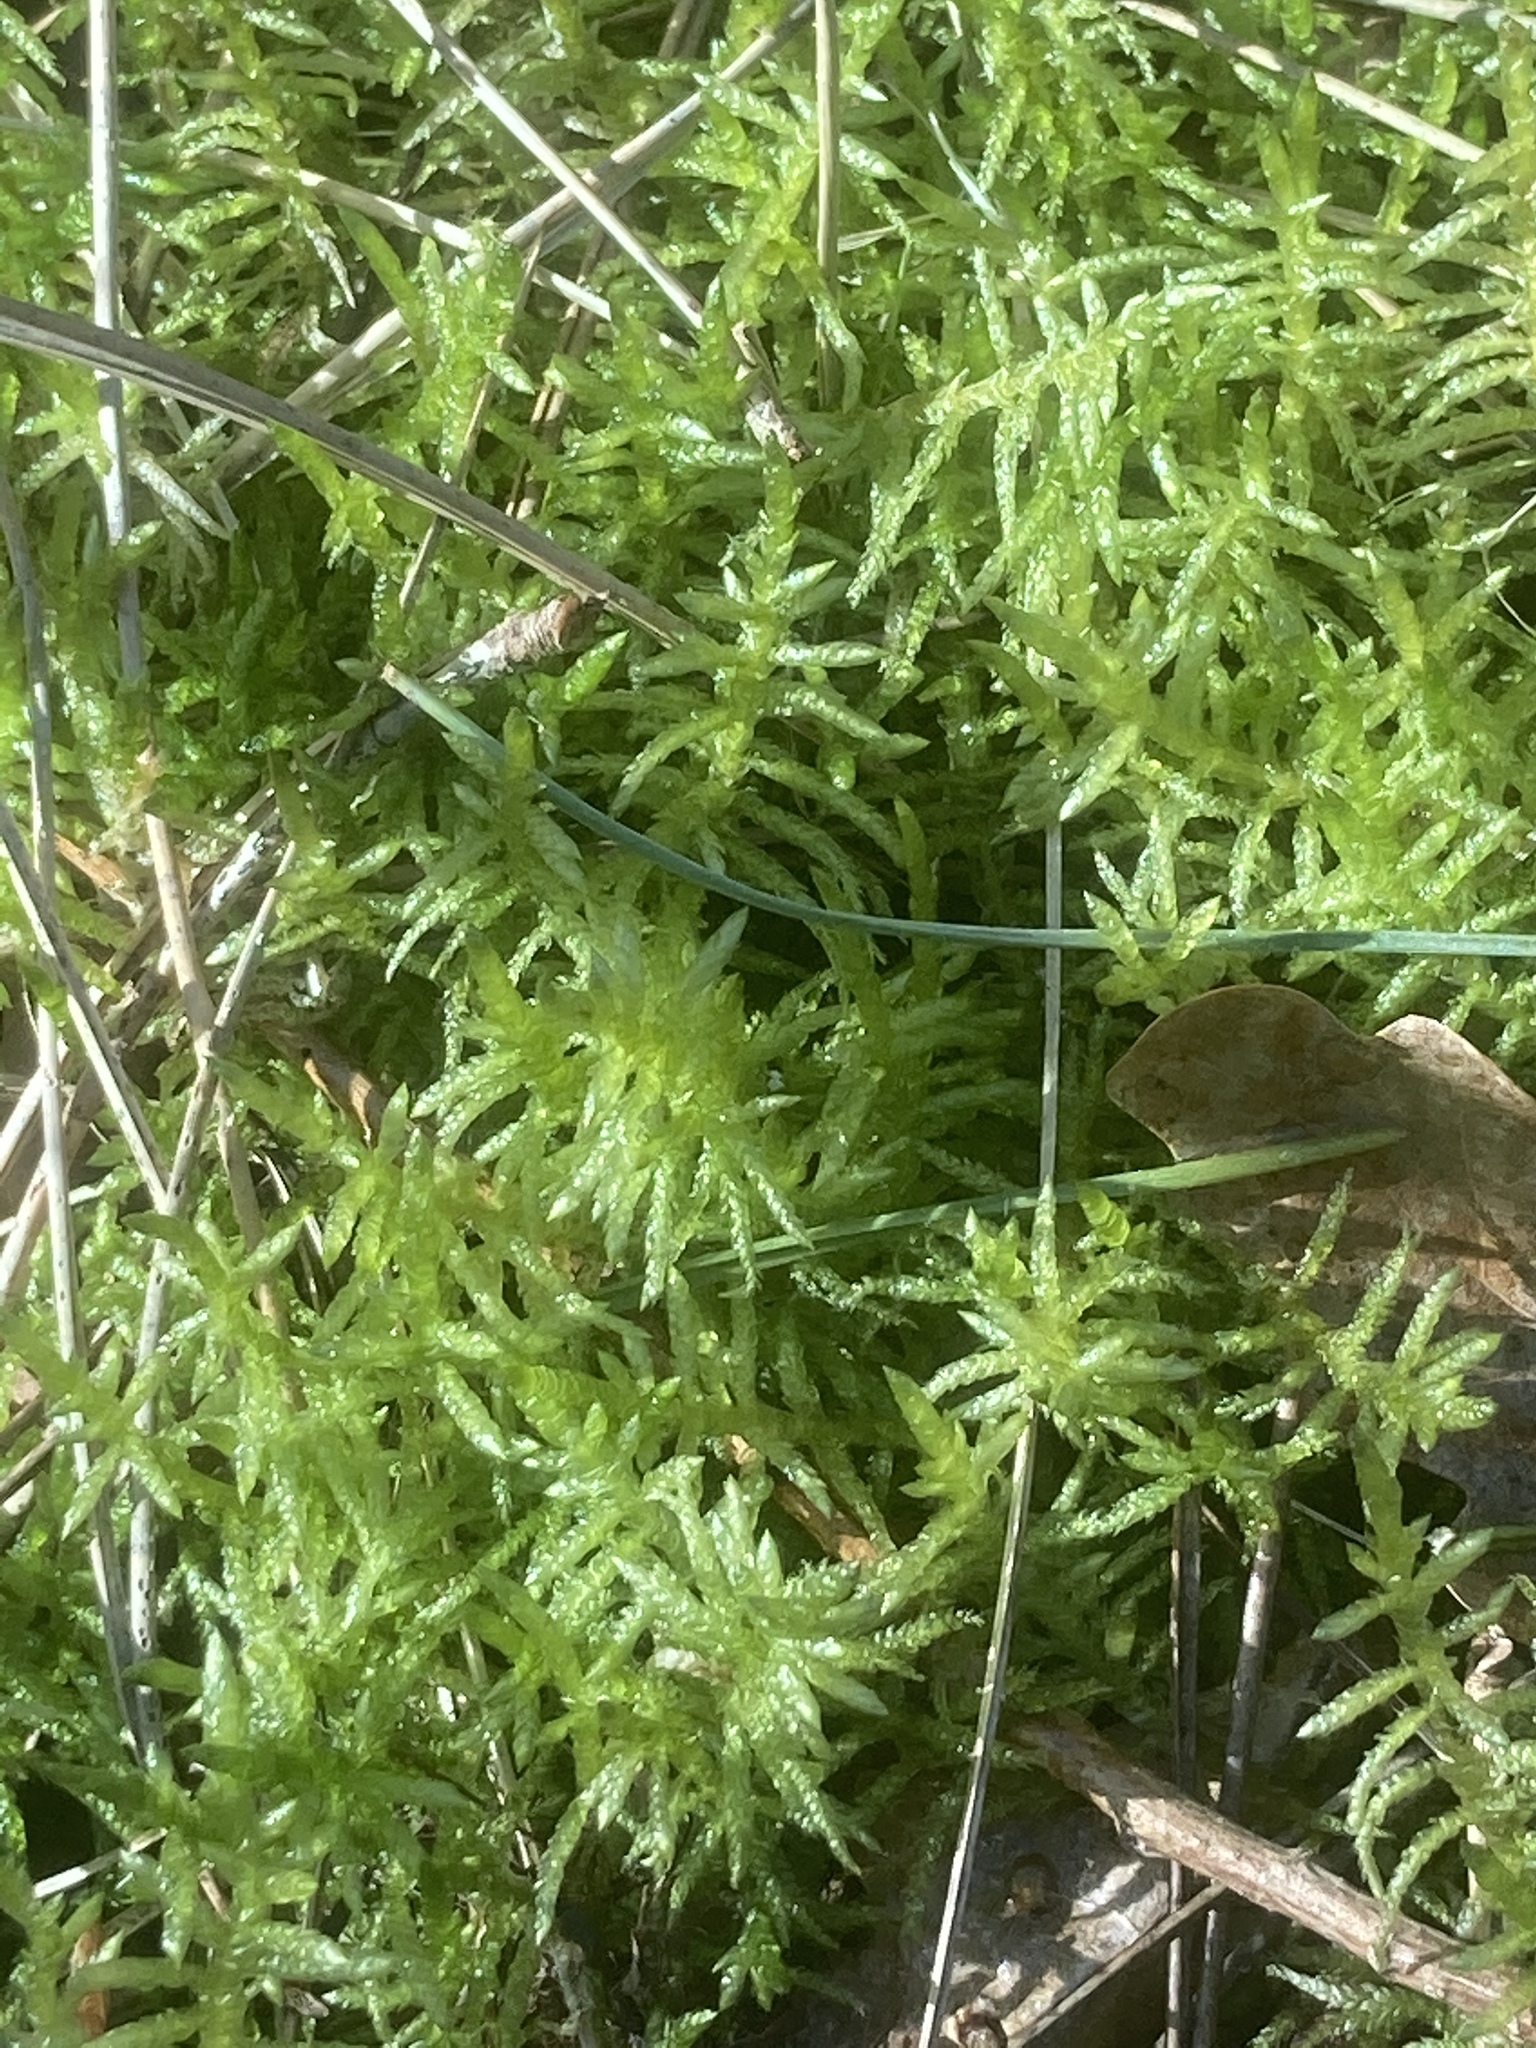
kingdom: Plantae
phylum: Bryophyta
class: Bryopsida
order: Hypnales
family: Brachytheciaceae
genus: Pseudoscleropodium
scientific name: Pseudoscleropodium purum
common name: Neat feather-moss
